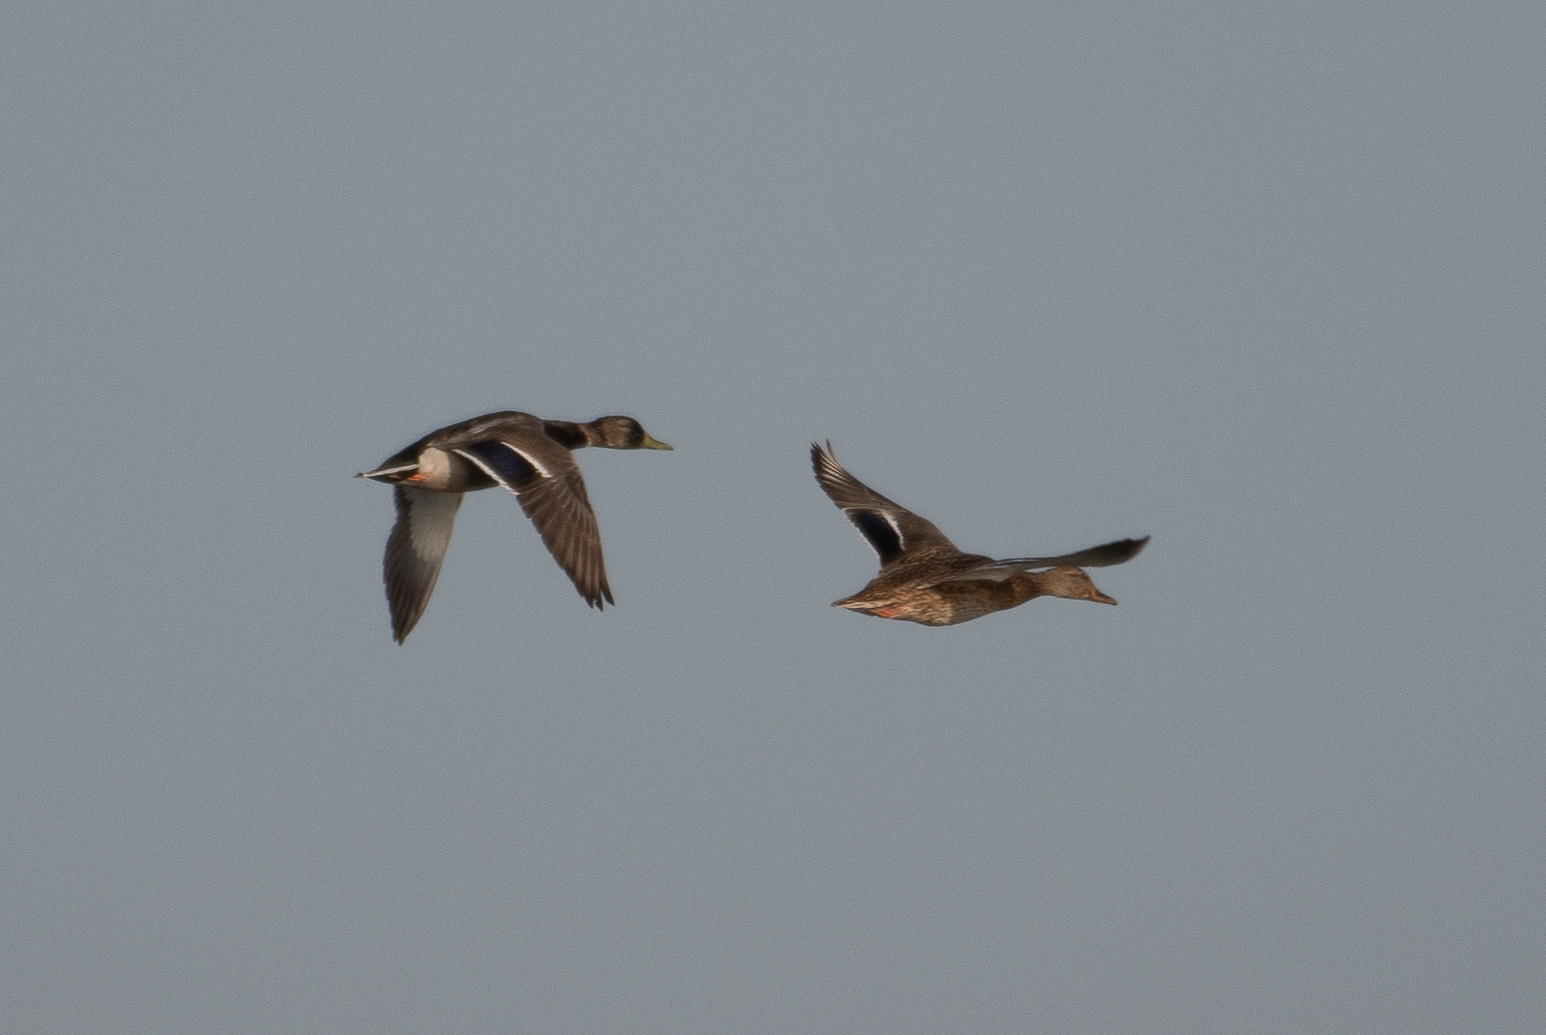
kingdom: Animalia
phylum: Chordata
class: Aves
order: Anseriformes
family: Anatidae
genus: Anas
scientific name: Anas platyrhynchos
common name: Mallard
